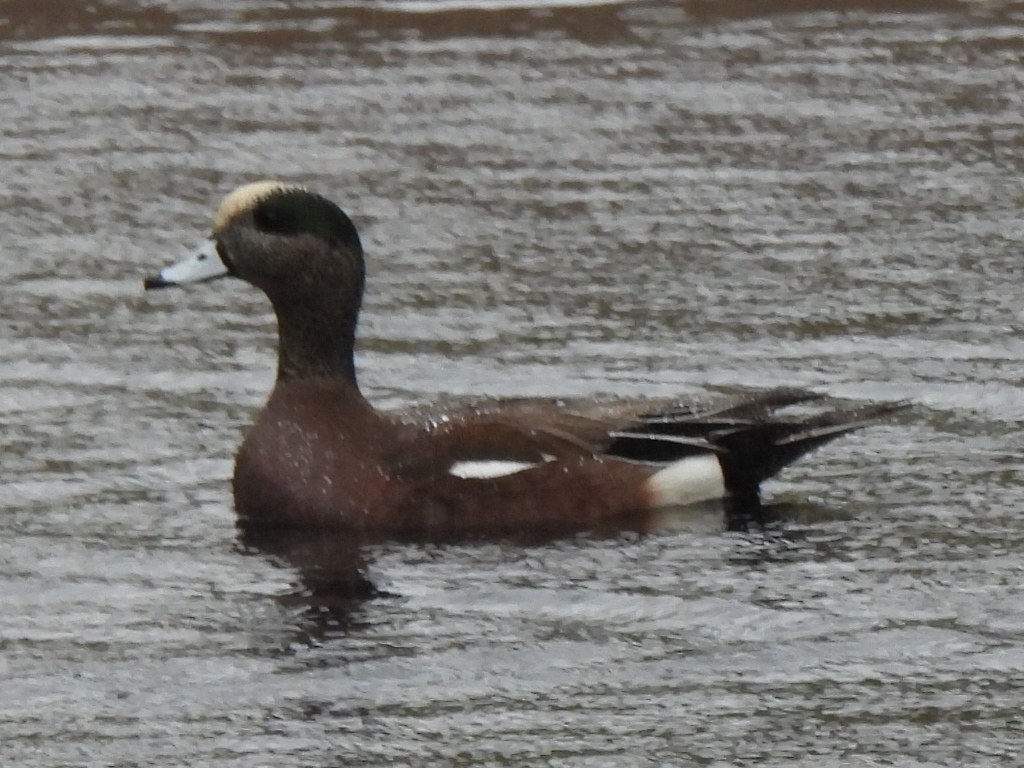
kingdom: Animalia
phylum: Chordata
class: Aves
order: Anseriformes
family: Anatidae
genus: Mareca
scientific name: Mareca americana
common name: American wigeon
